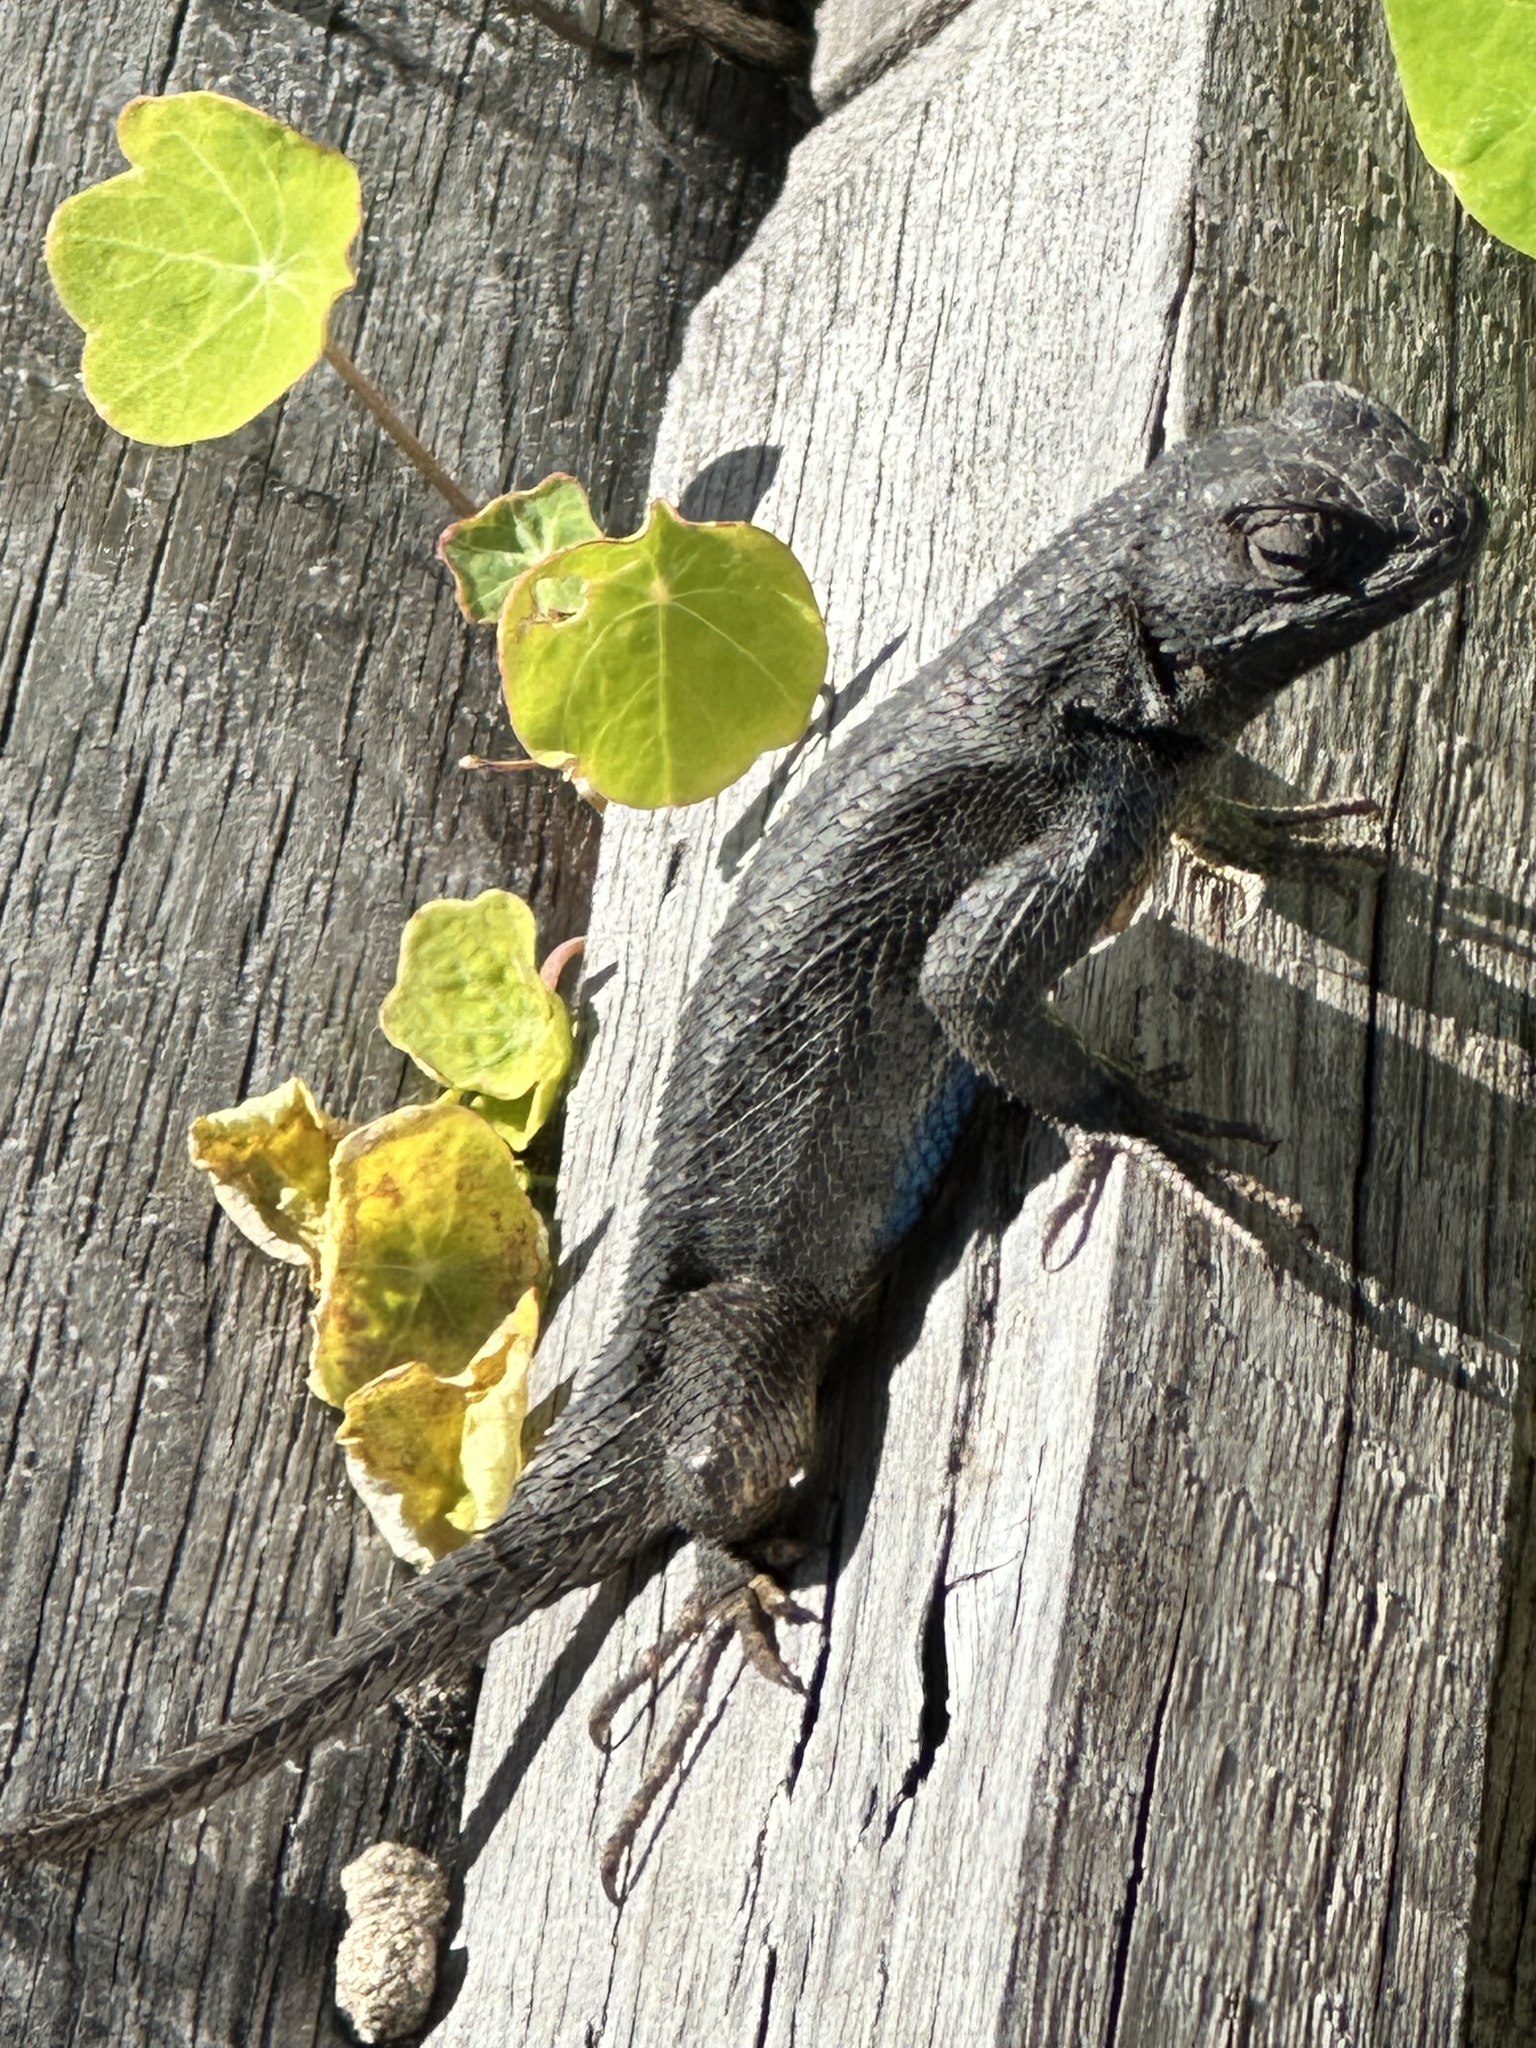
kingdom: Animalia
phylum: Chordata
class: Squamata
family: Phrynosomatidae
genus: Sceloporus
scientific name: Sceloporus occidentalis
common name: Western fence lizard
